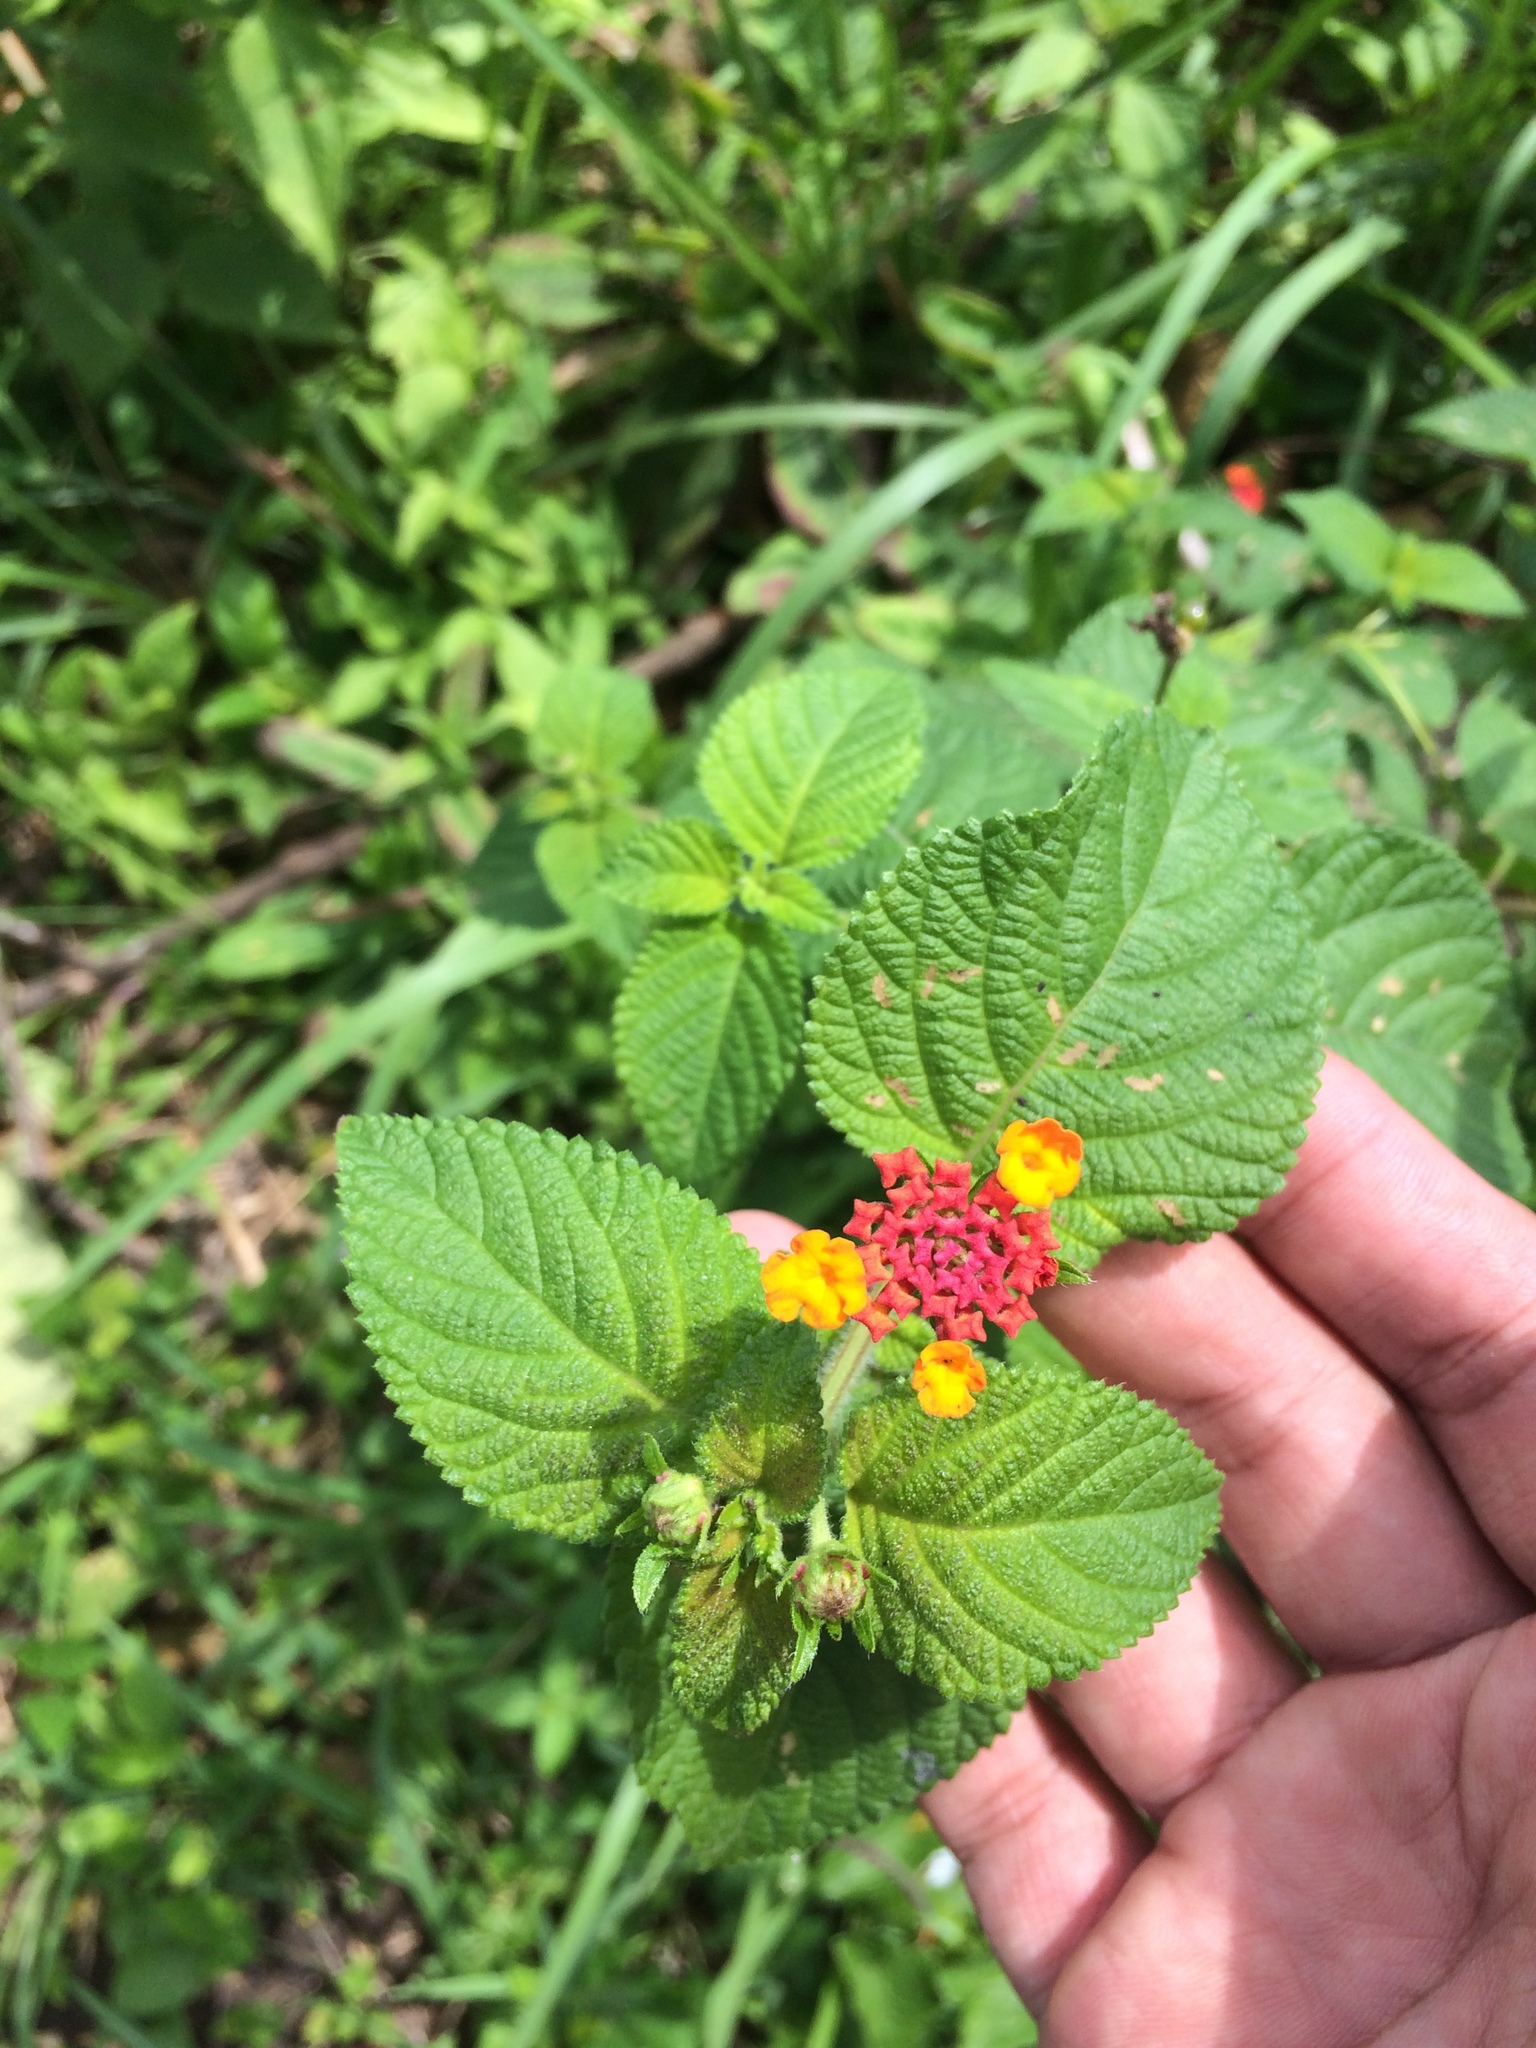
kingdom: Plantae
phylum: Tracheophyta
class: Magnoliopsida
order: Lamiales
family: Verbenaceae
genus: Lantana
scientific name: Lantana camara
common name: Lantana
